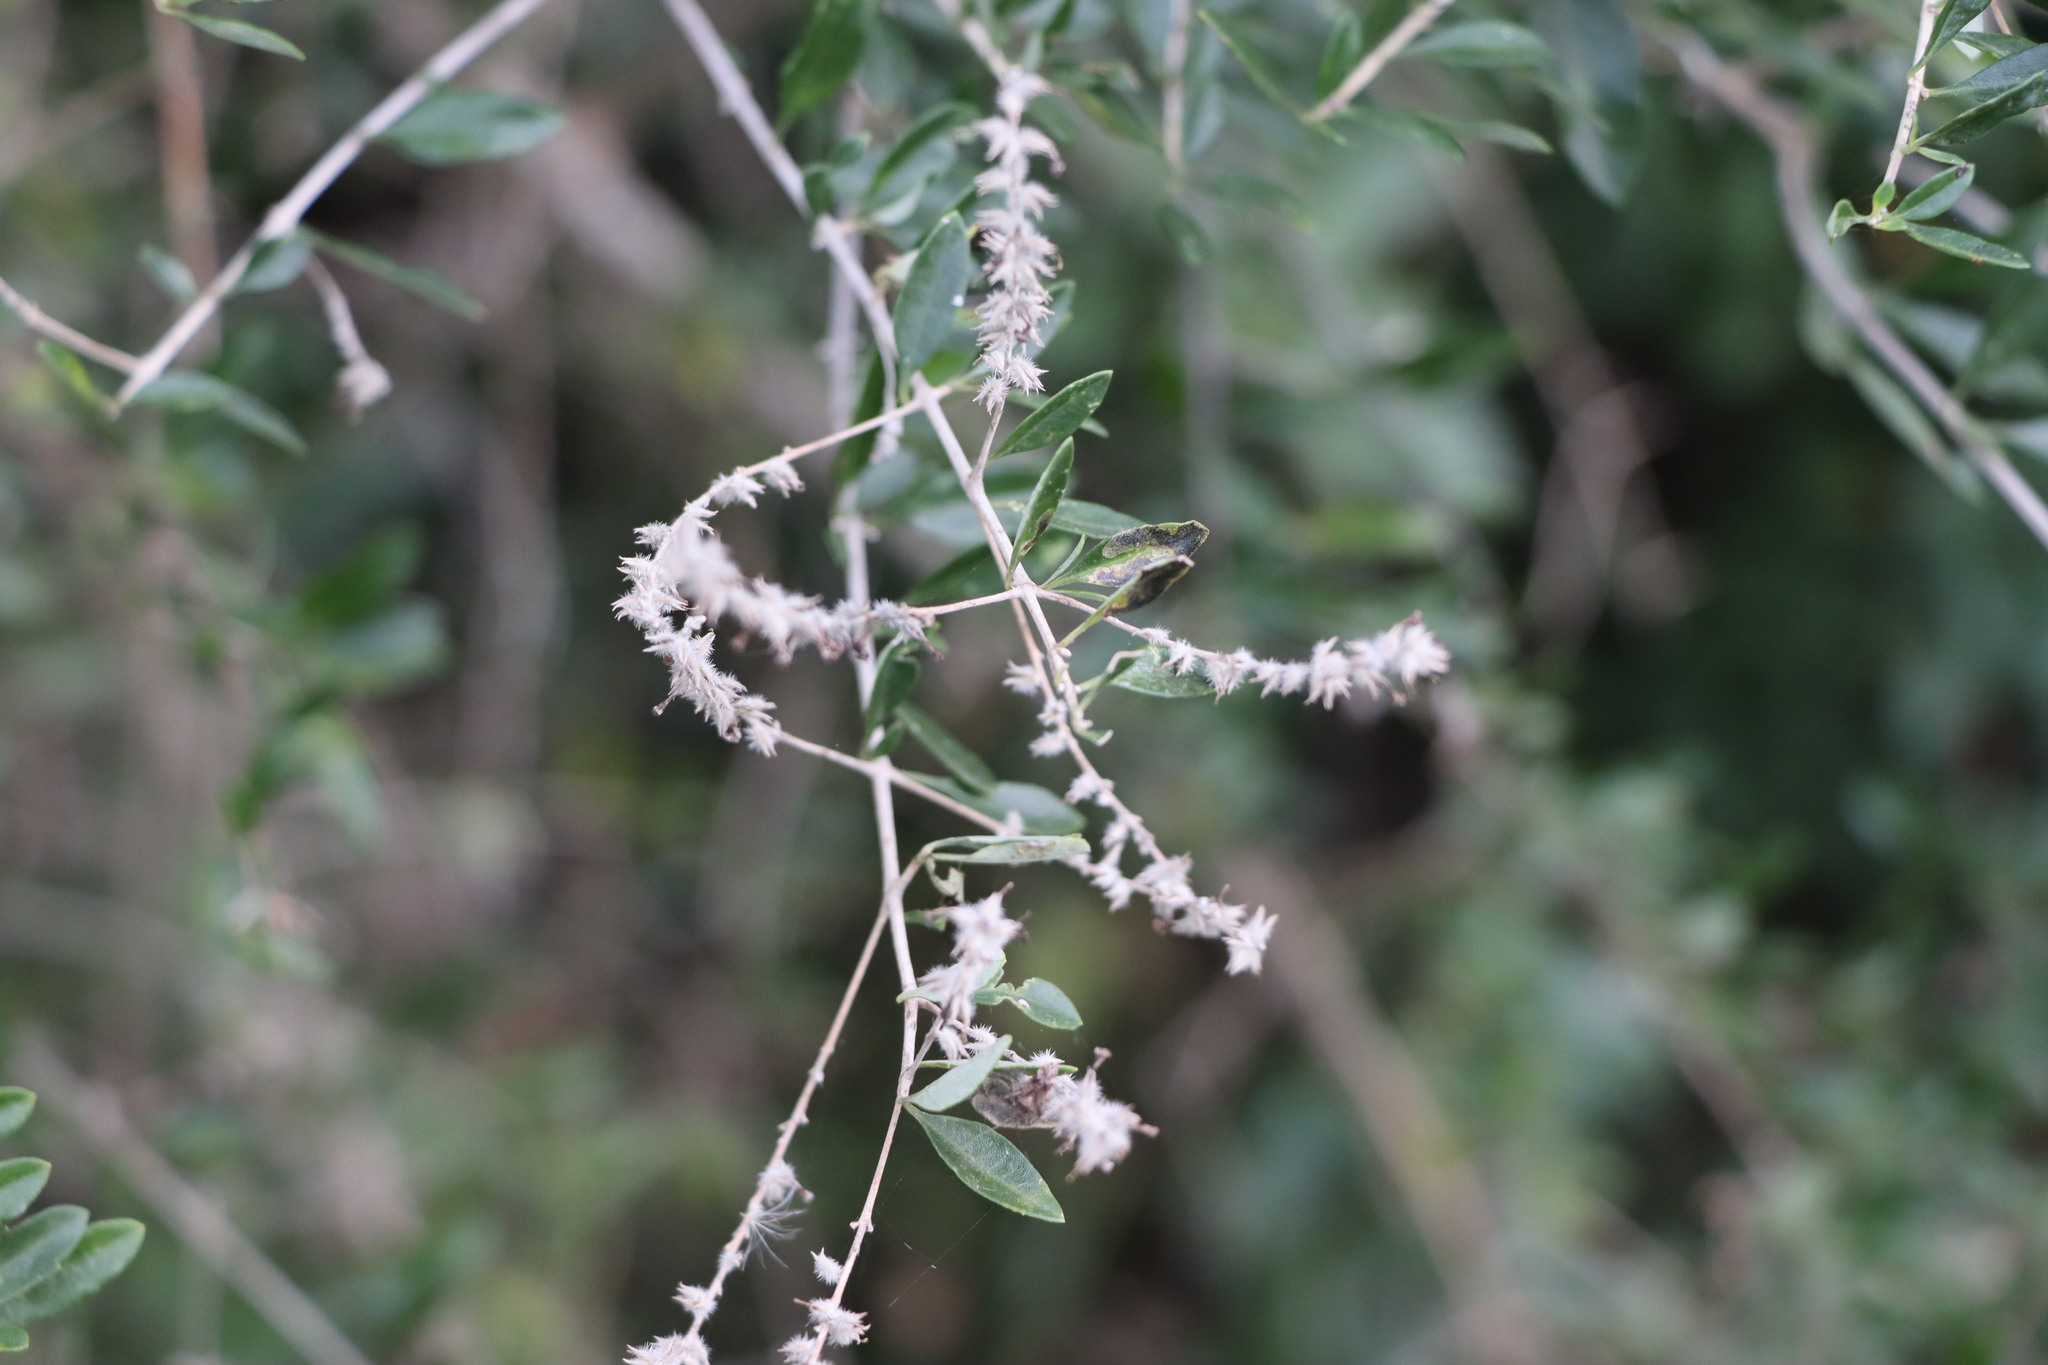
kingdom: Plantae
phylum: Tracheophyta
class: Magnoliopsida
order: Lamiales
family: Verbenaceae
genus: Aloysia
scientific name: Aloysia gratissima
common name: Common bee-brush
